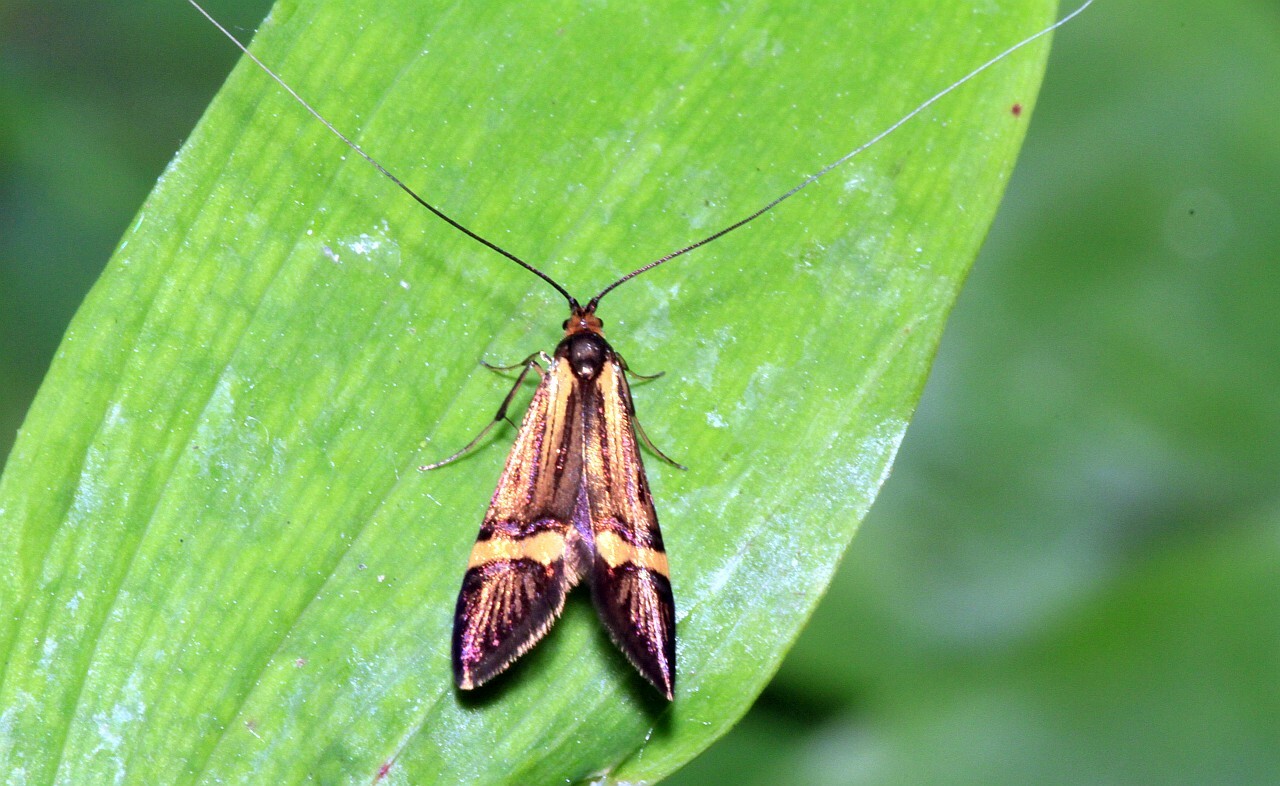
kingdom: Animalia
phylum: Arthropoda
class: Insecta
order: Lepidoptera
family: Adelidae
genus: Nemophora
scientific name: Nemophora
